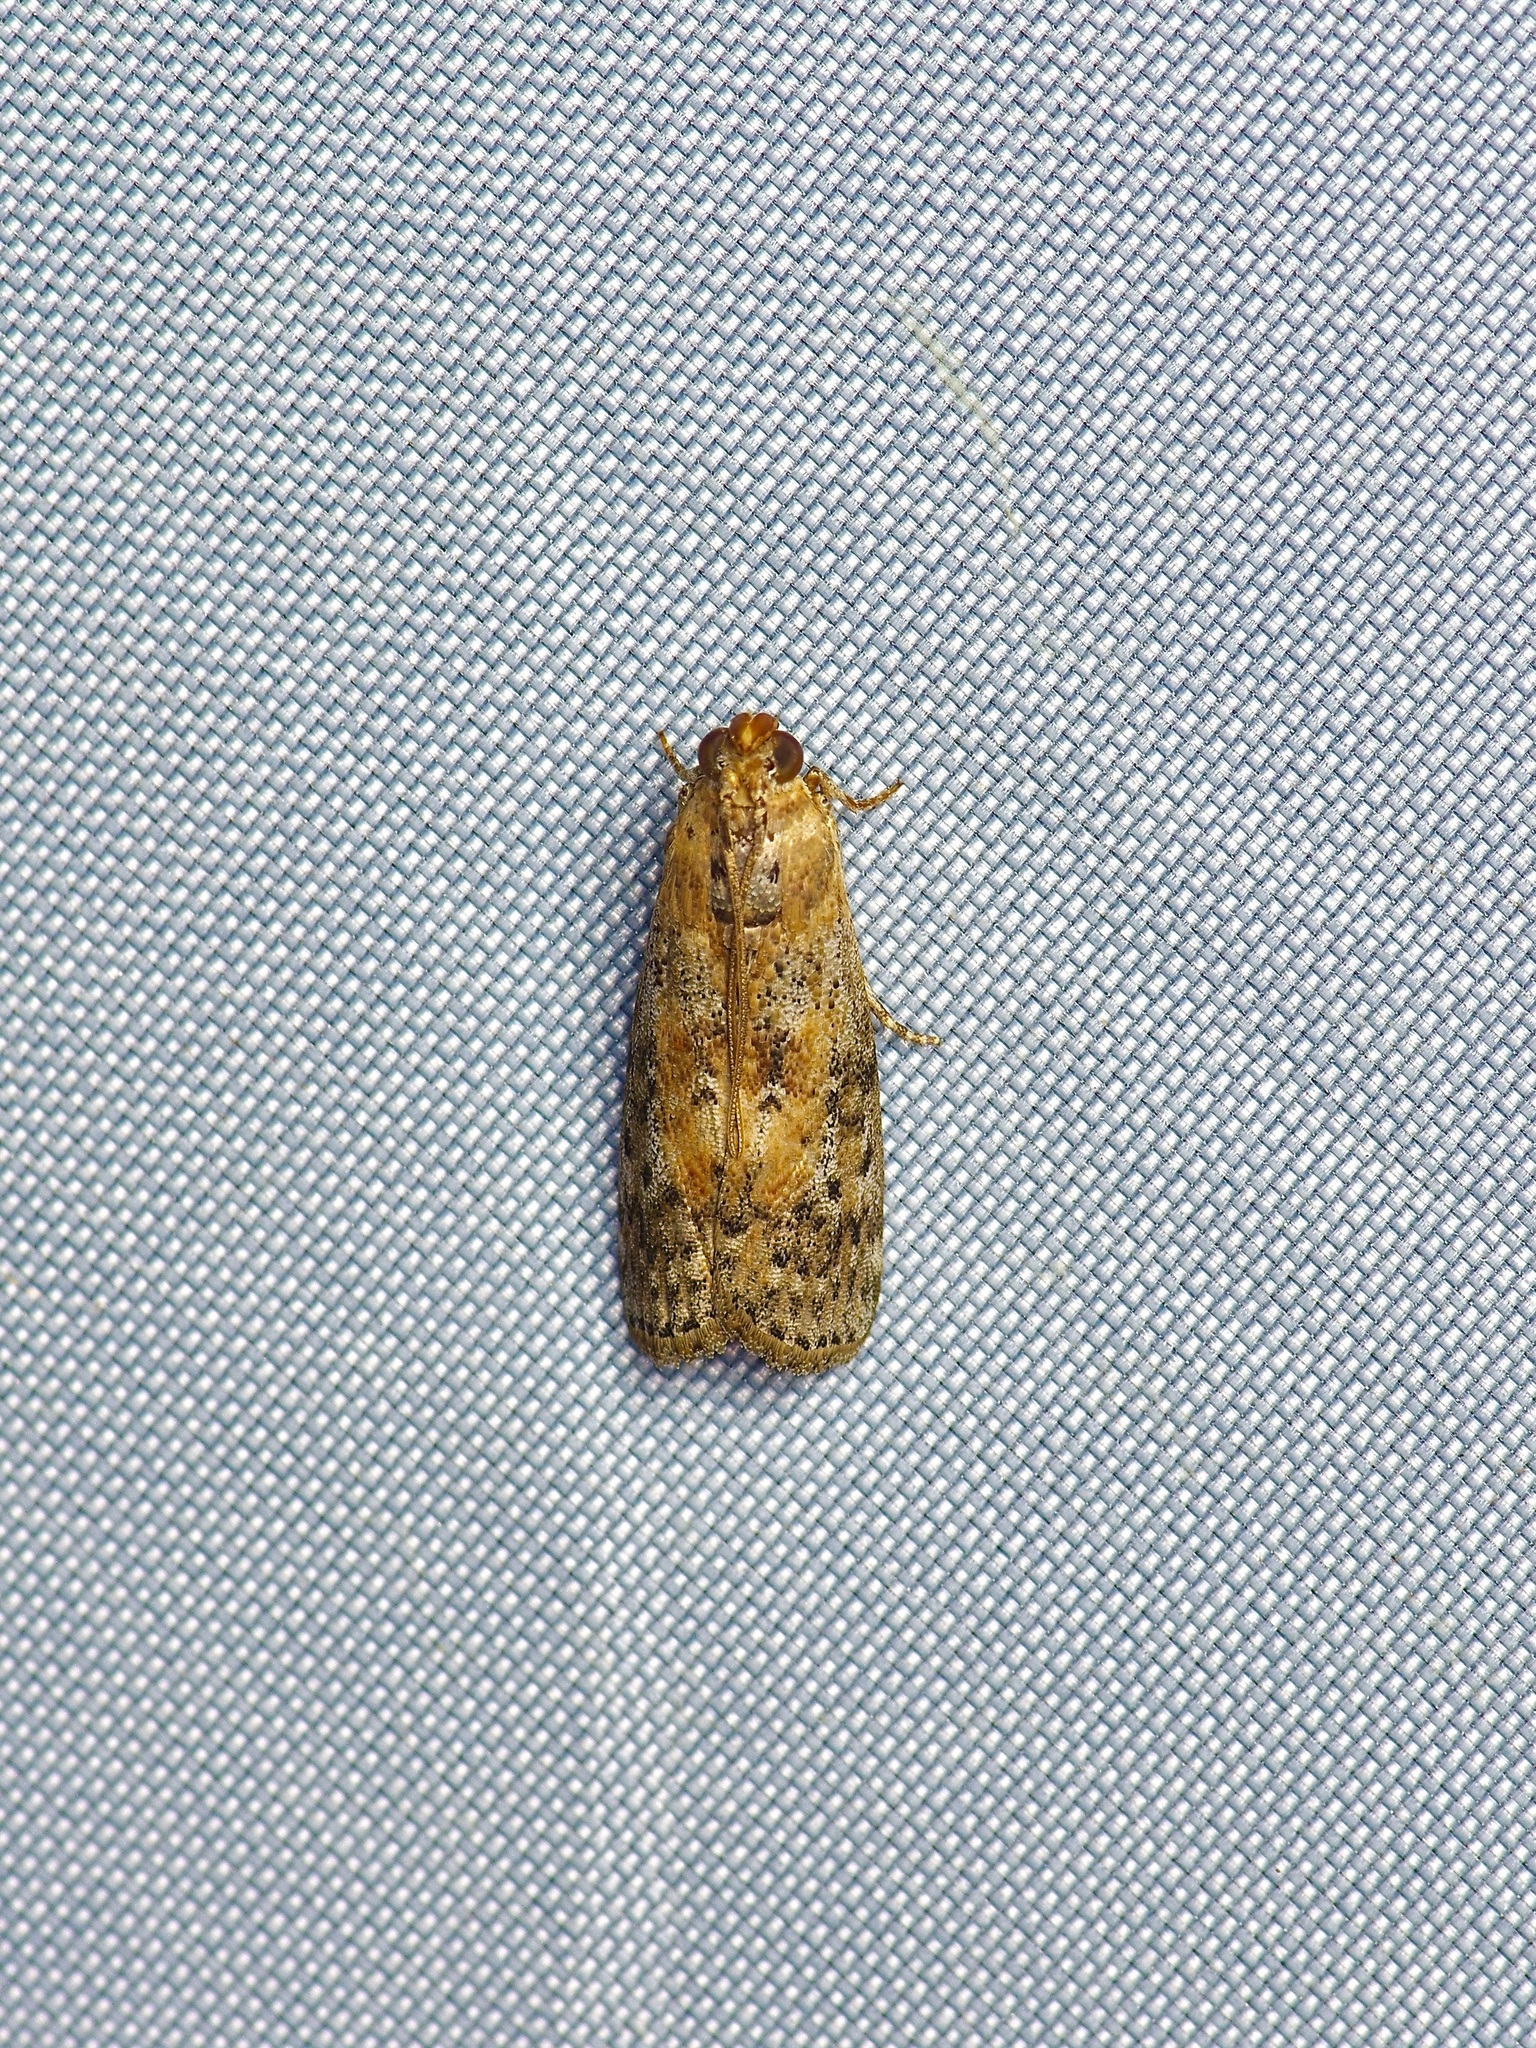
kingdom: Animalia
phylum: Arthropoda
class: Insecta
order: Lepidoptera
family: Pyralidae
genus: Sciota
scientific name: Sciota celtidella
